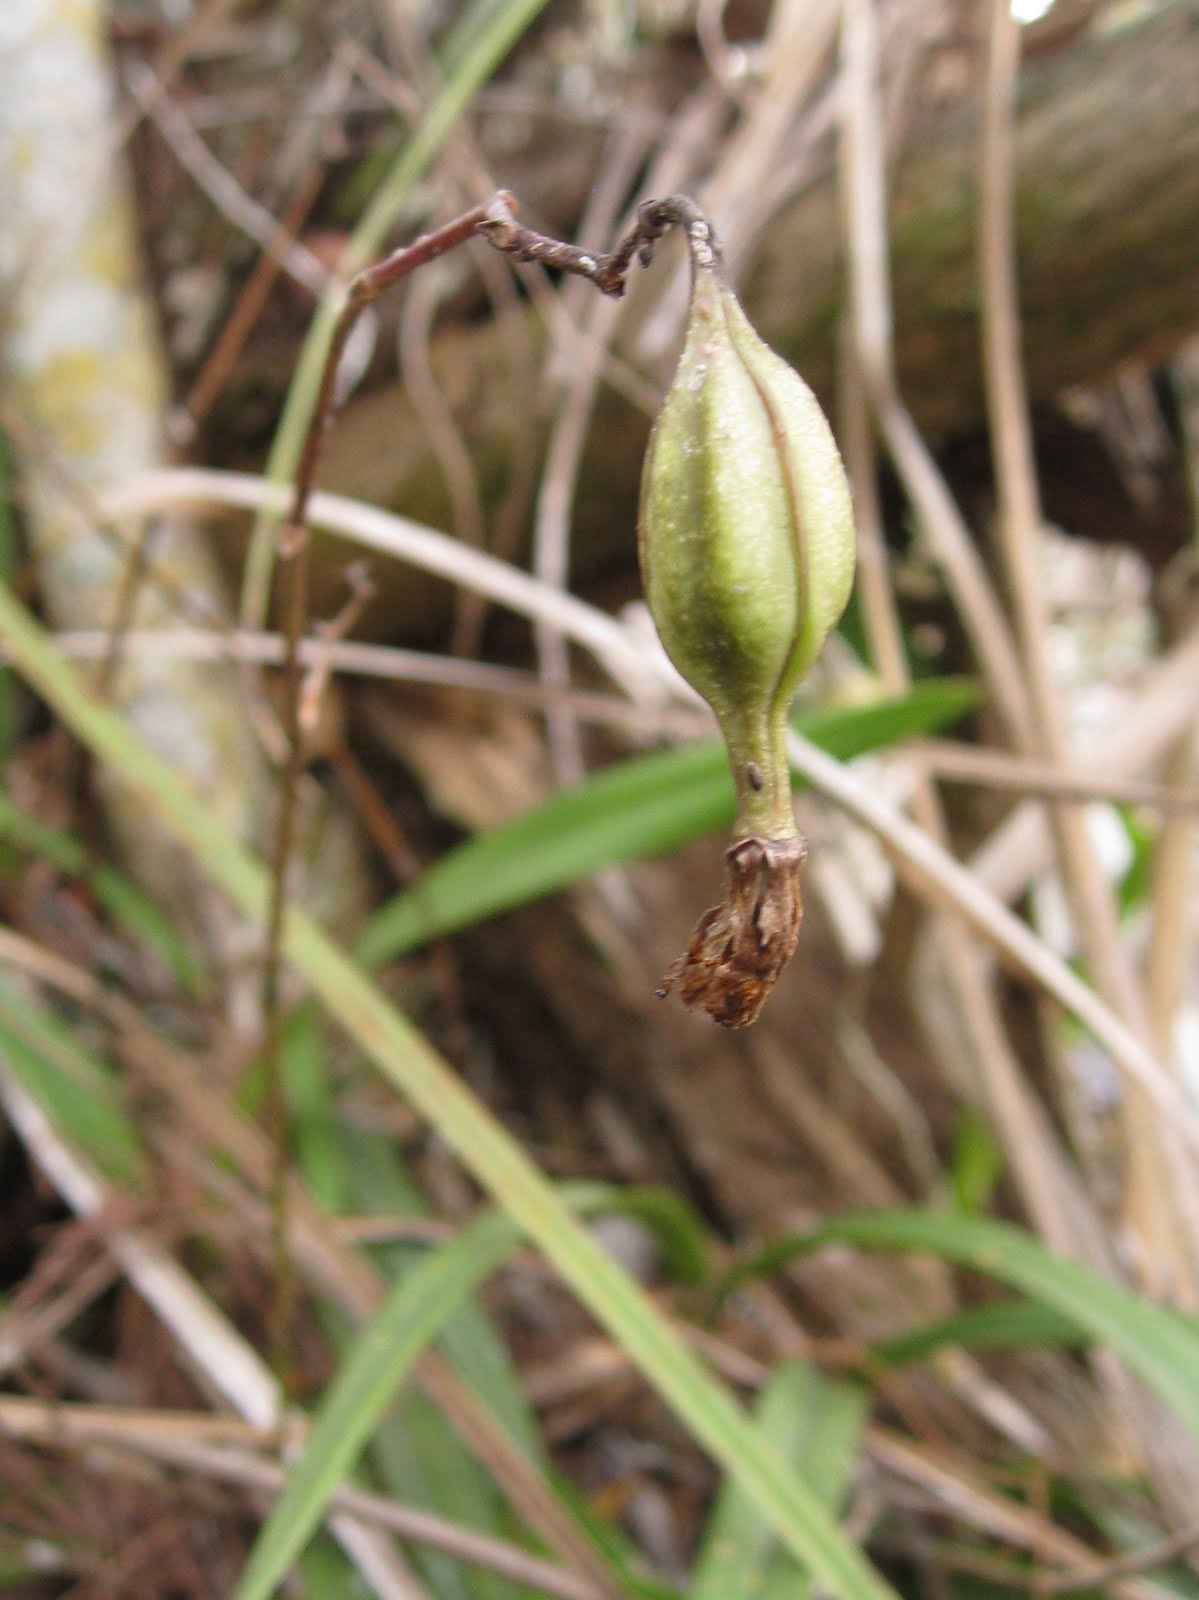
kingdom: Plantae
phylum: Tracheophyta
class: Liliopsida
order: Asparagales
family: Orchidaceae
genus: Encyclia
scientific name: Encyclia tampensis
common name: Florida butterfly orchid
